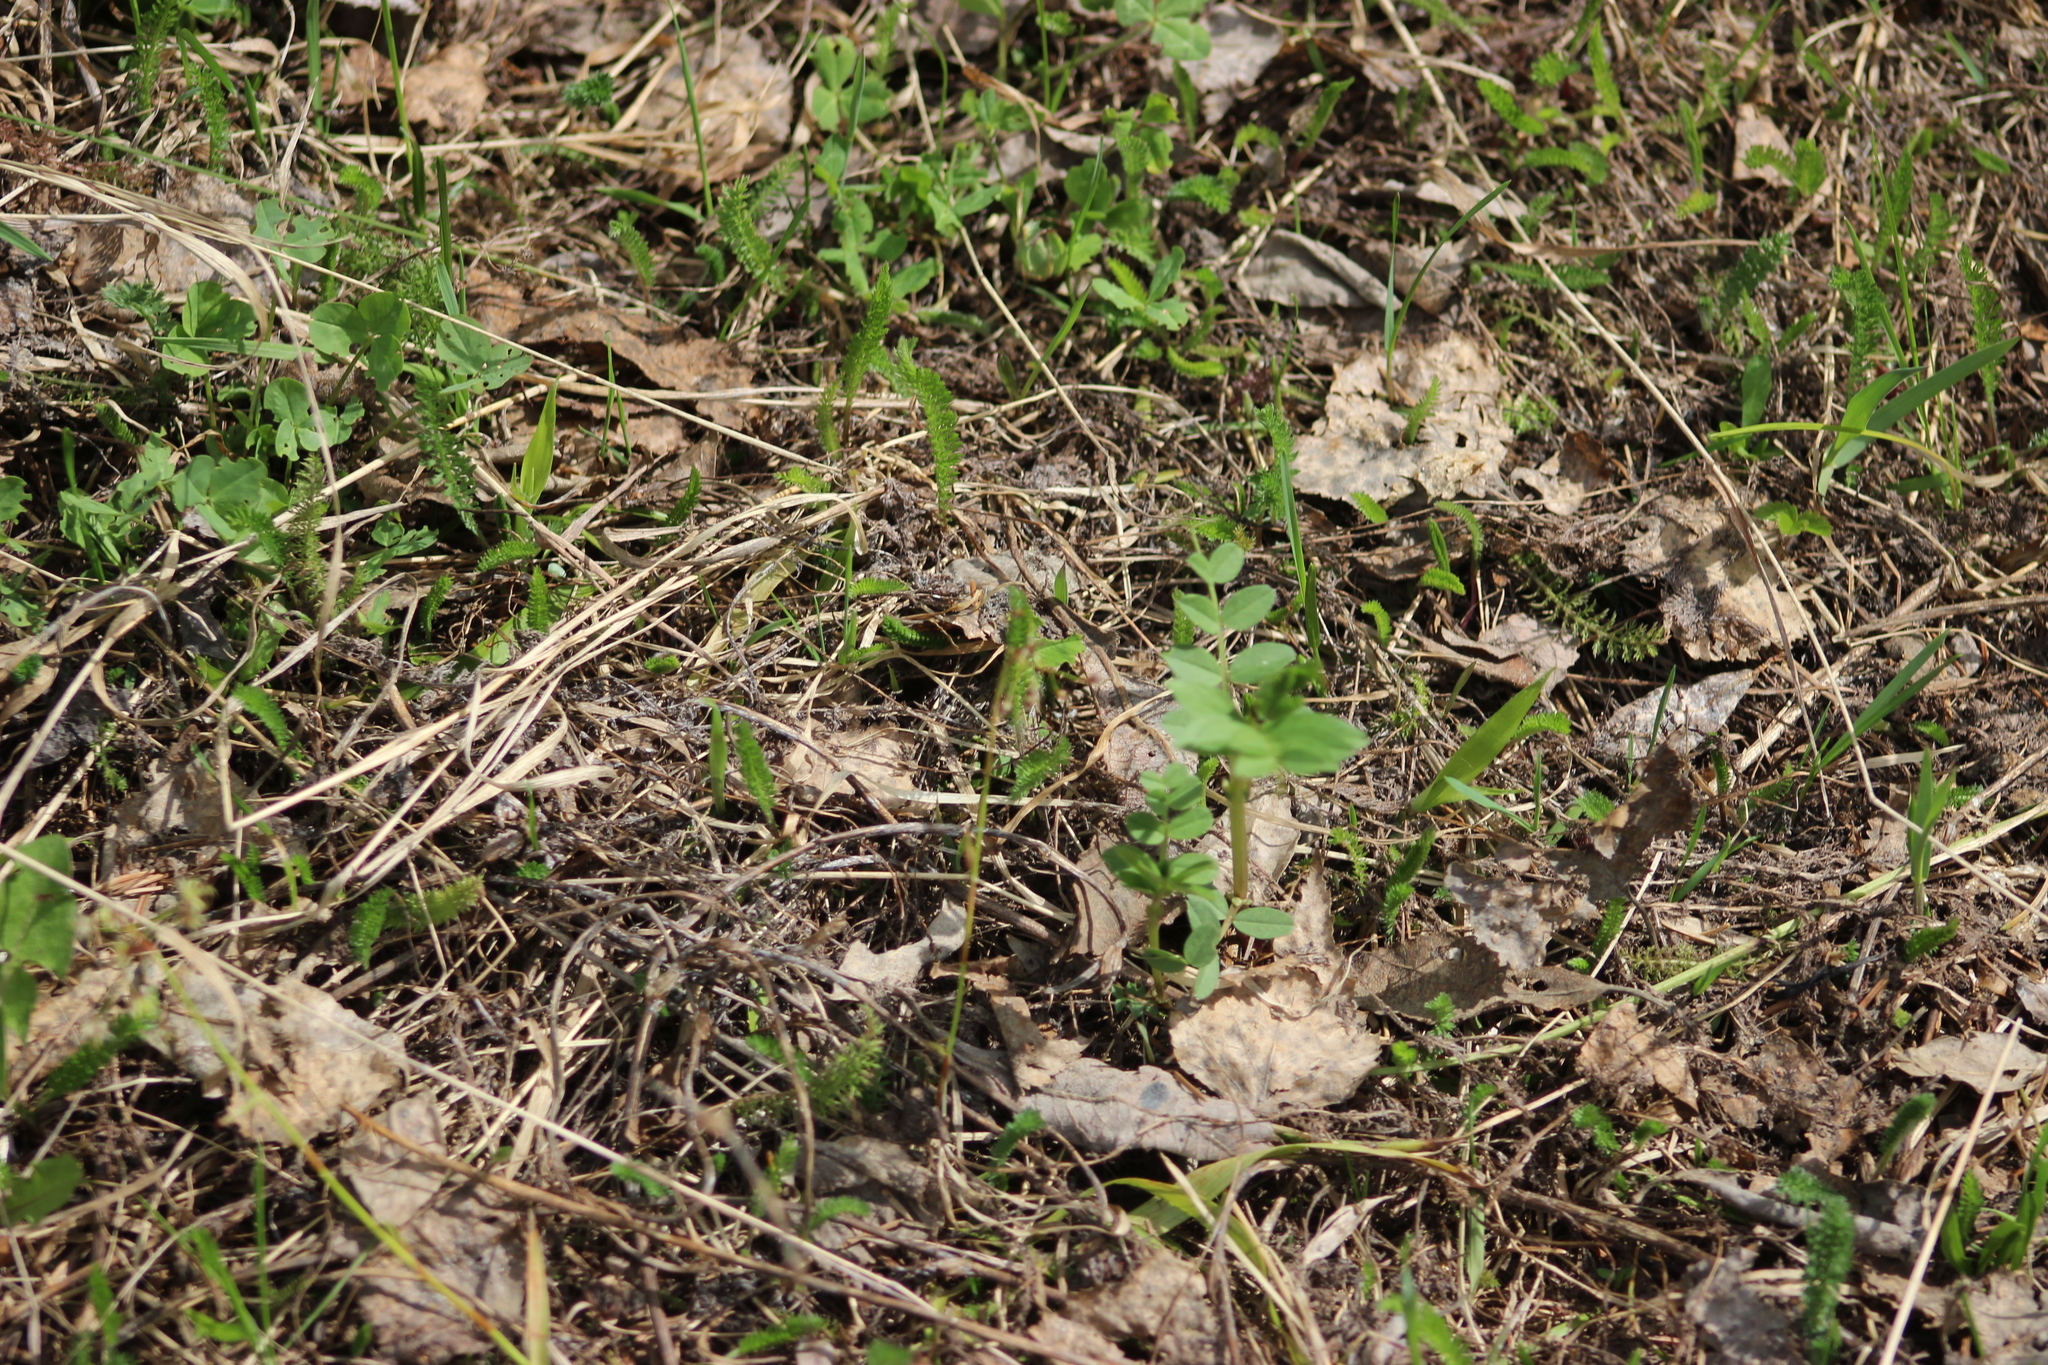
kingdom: Plantae
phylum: Tracheophyta
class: Magnoliopsida
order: Fabales
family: Fabaceae
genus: Vicia
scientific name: Vicia sepium
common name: Bush vetch
